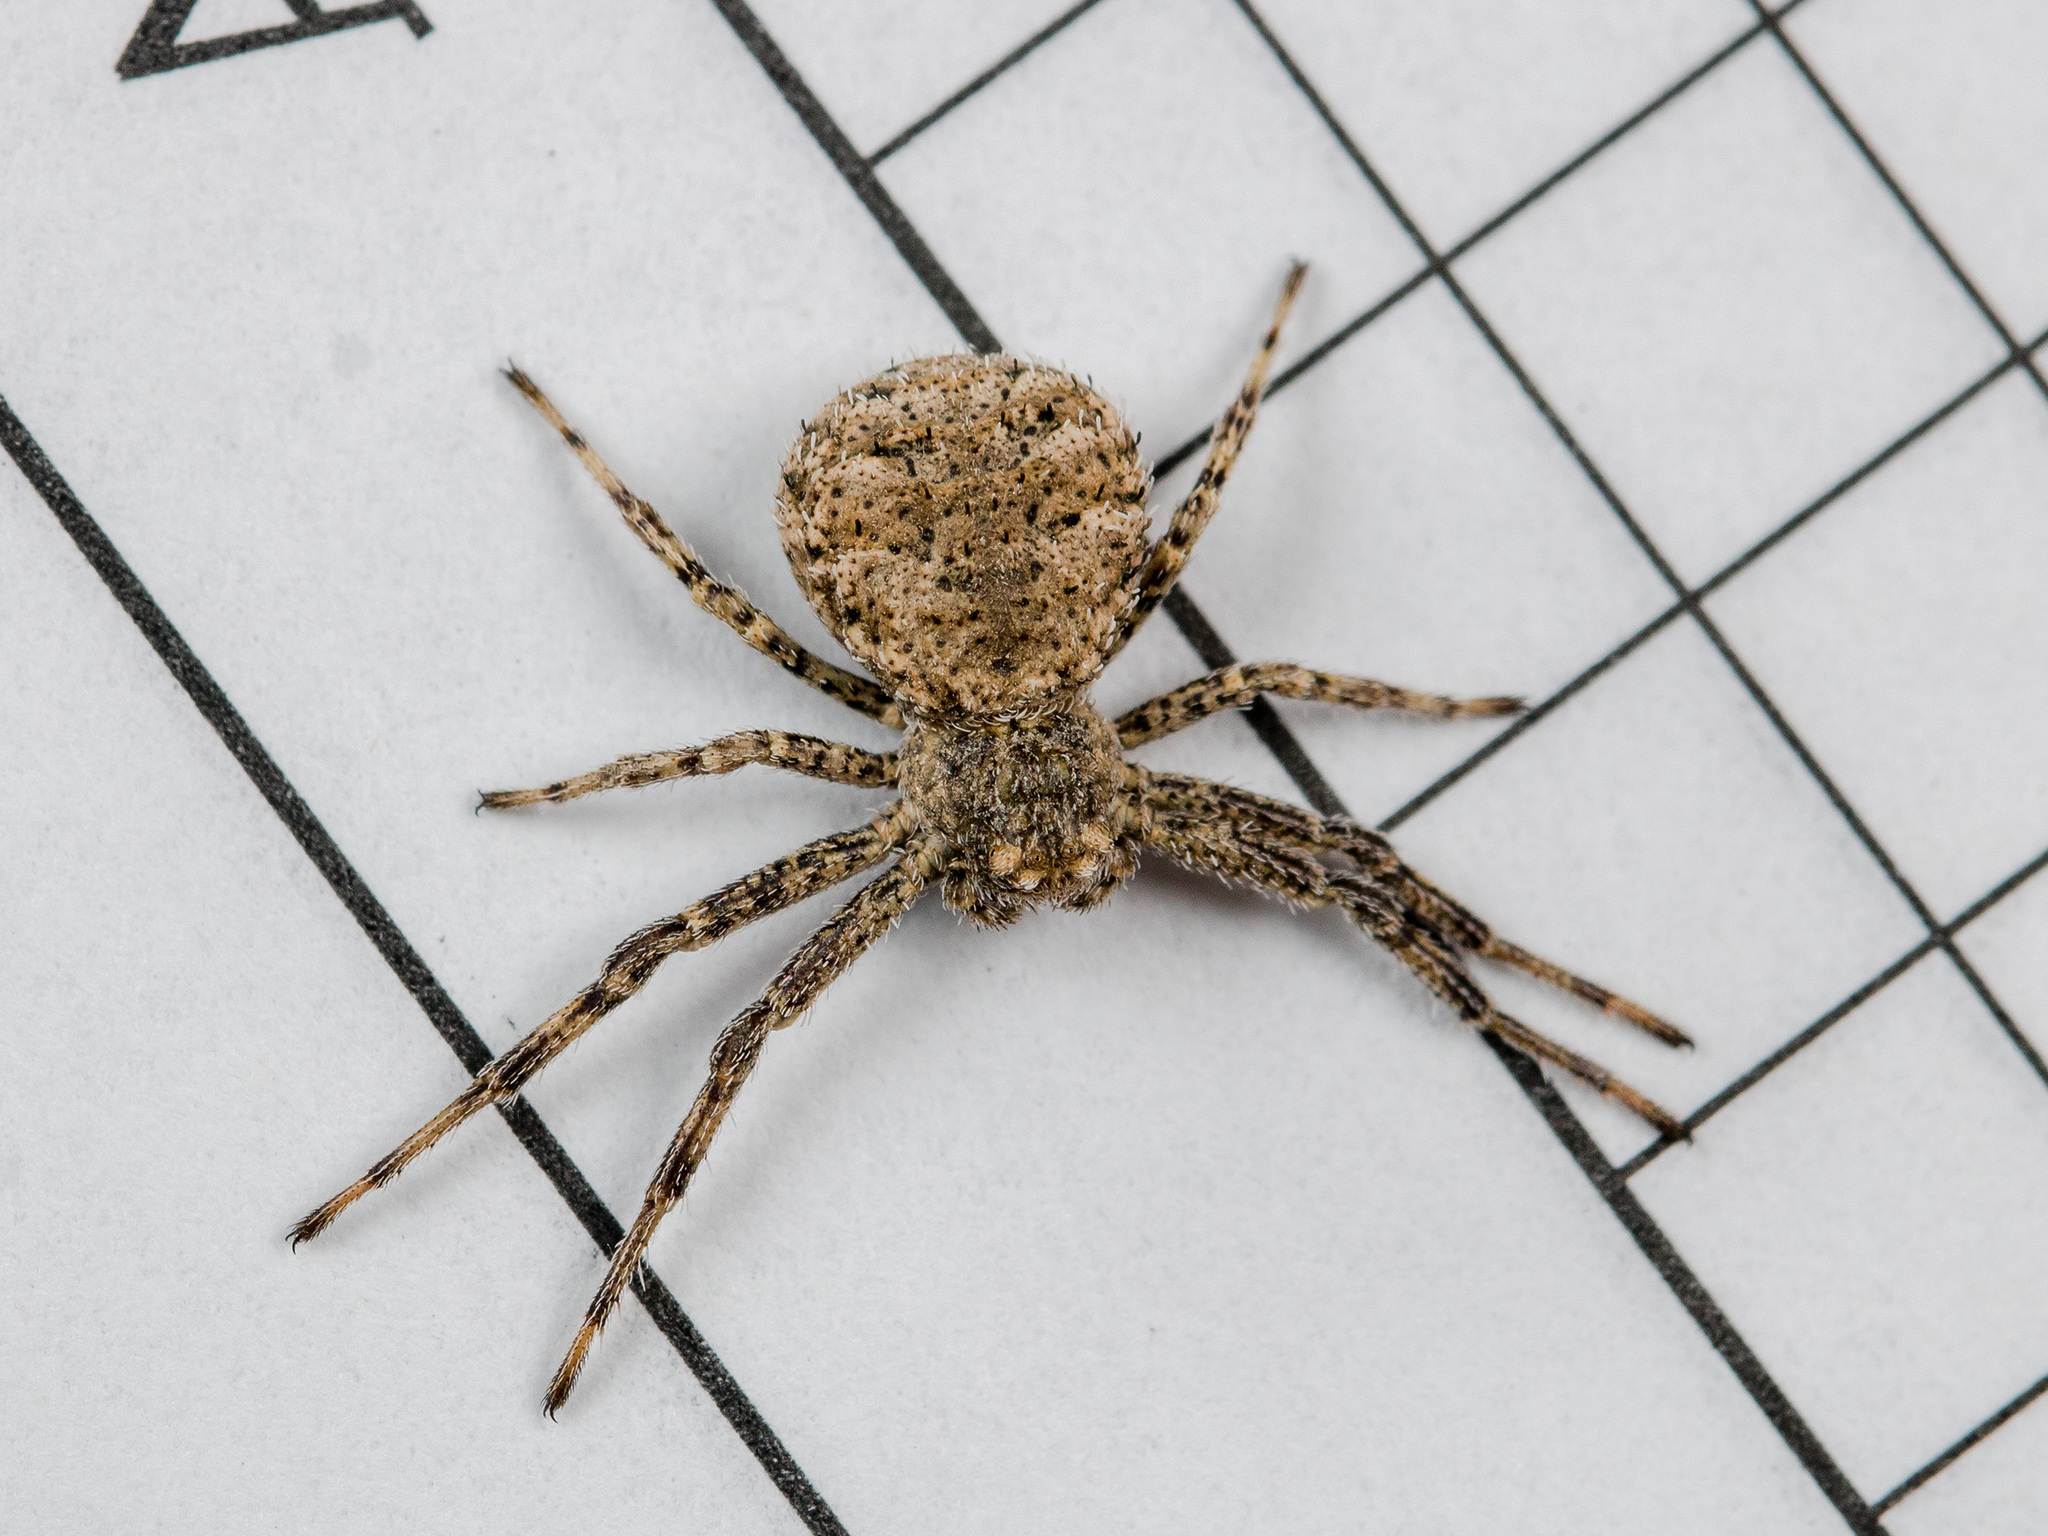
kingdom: Animalia
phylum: Arthropoda
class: Arachnida
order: Araneae
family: Thomisidae
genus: Ozyptila
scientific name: Ozyptila lugubris
